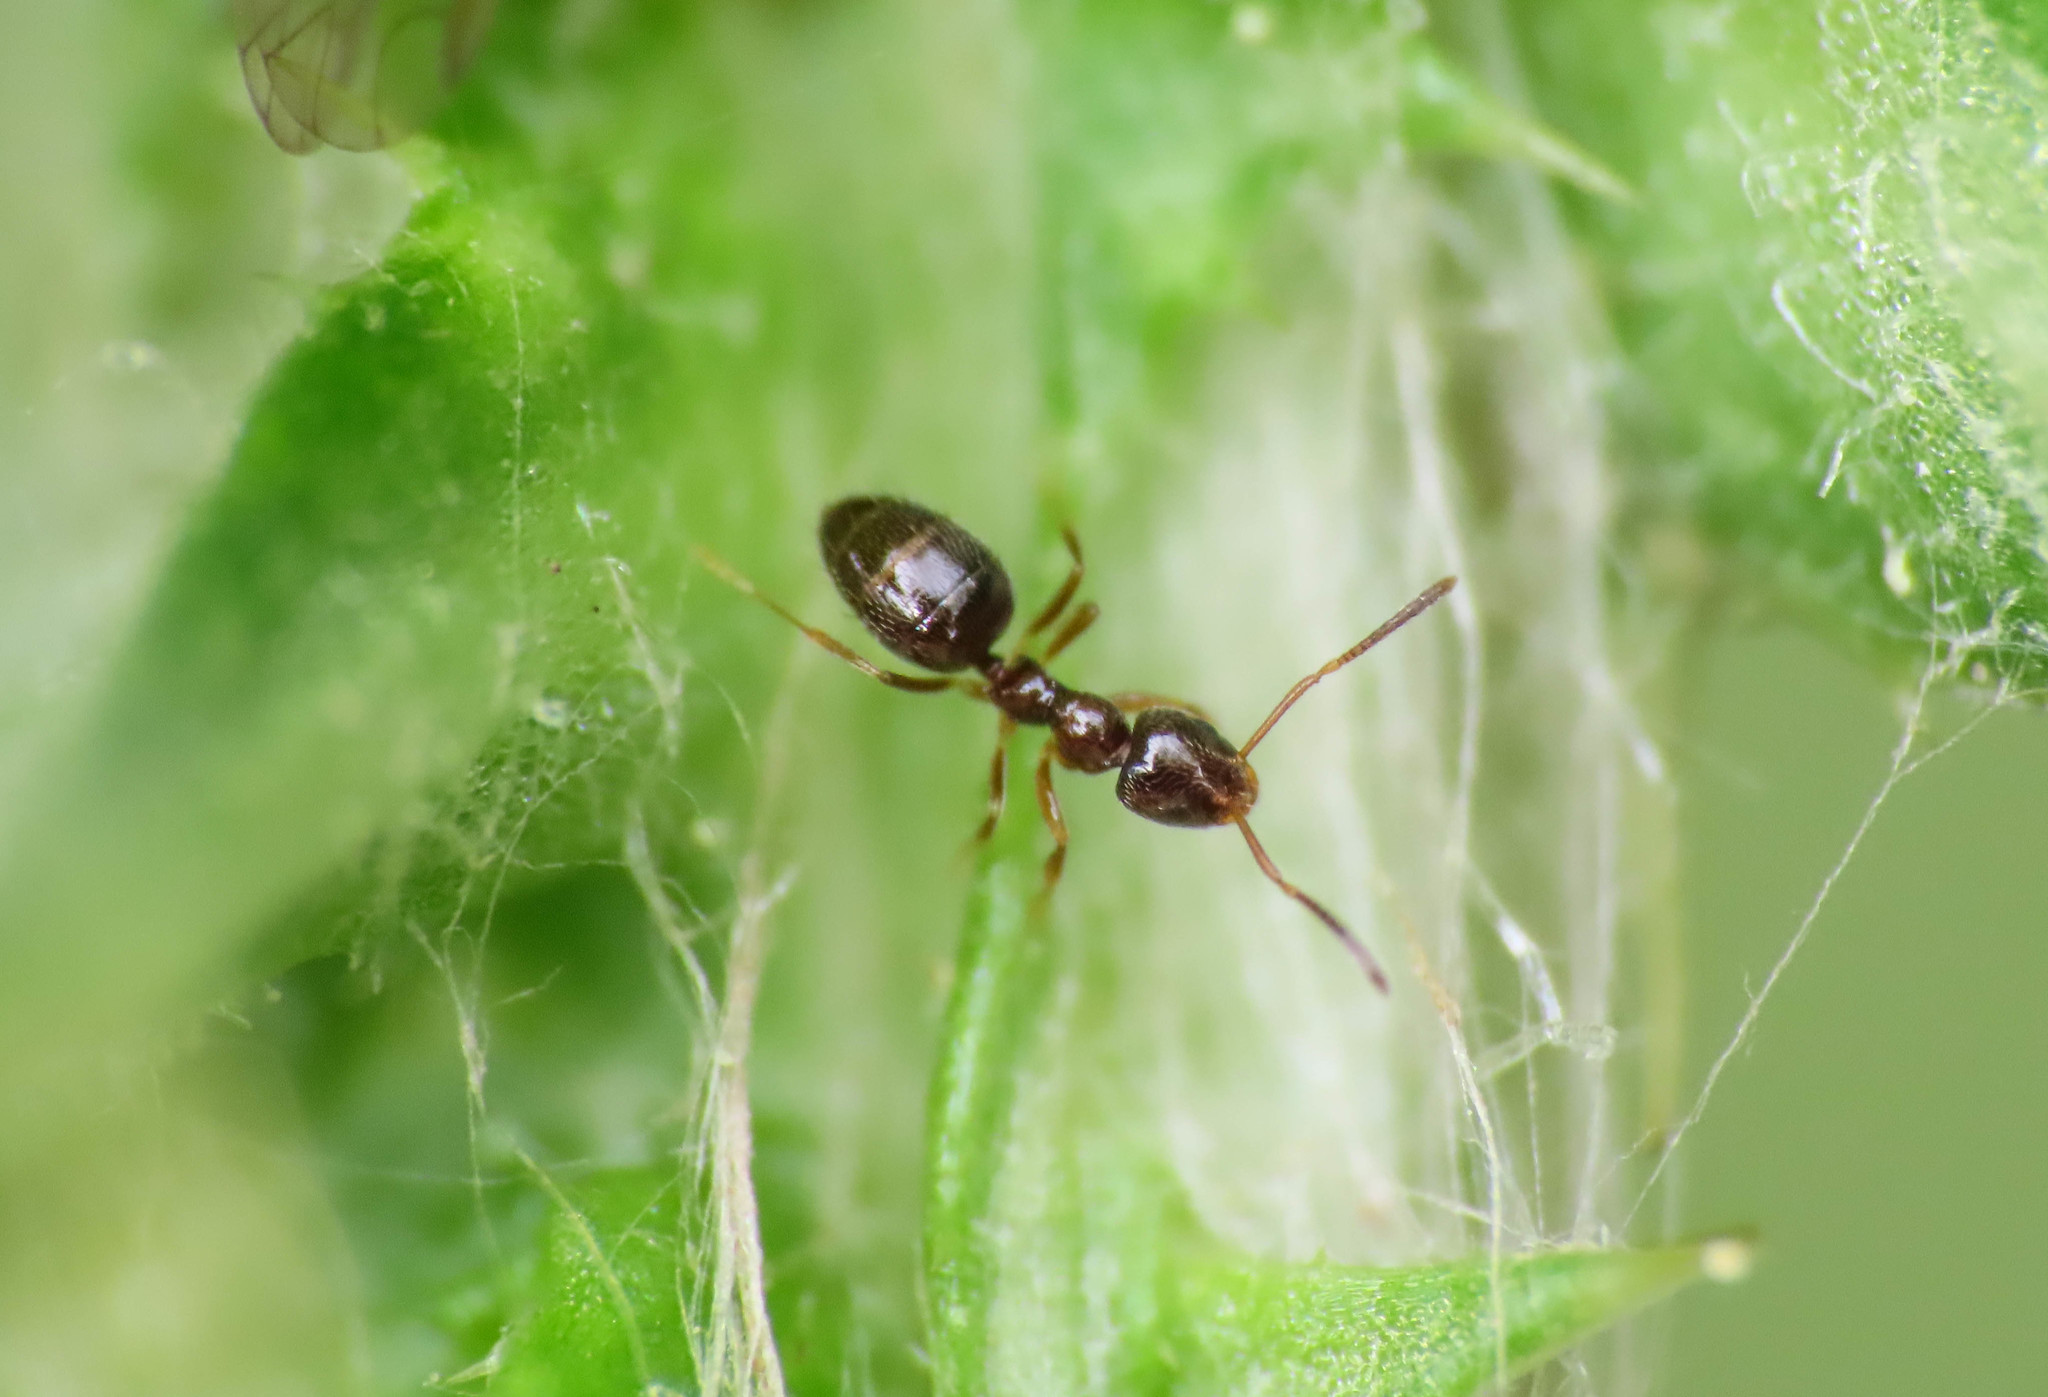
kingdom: Animalia
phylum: Arthropoda
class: Insecta
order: Hymenoptera
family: Formicidae
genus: Plagiolepis
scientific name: Plagiolepis pygmaea
